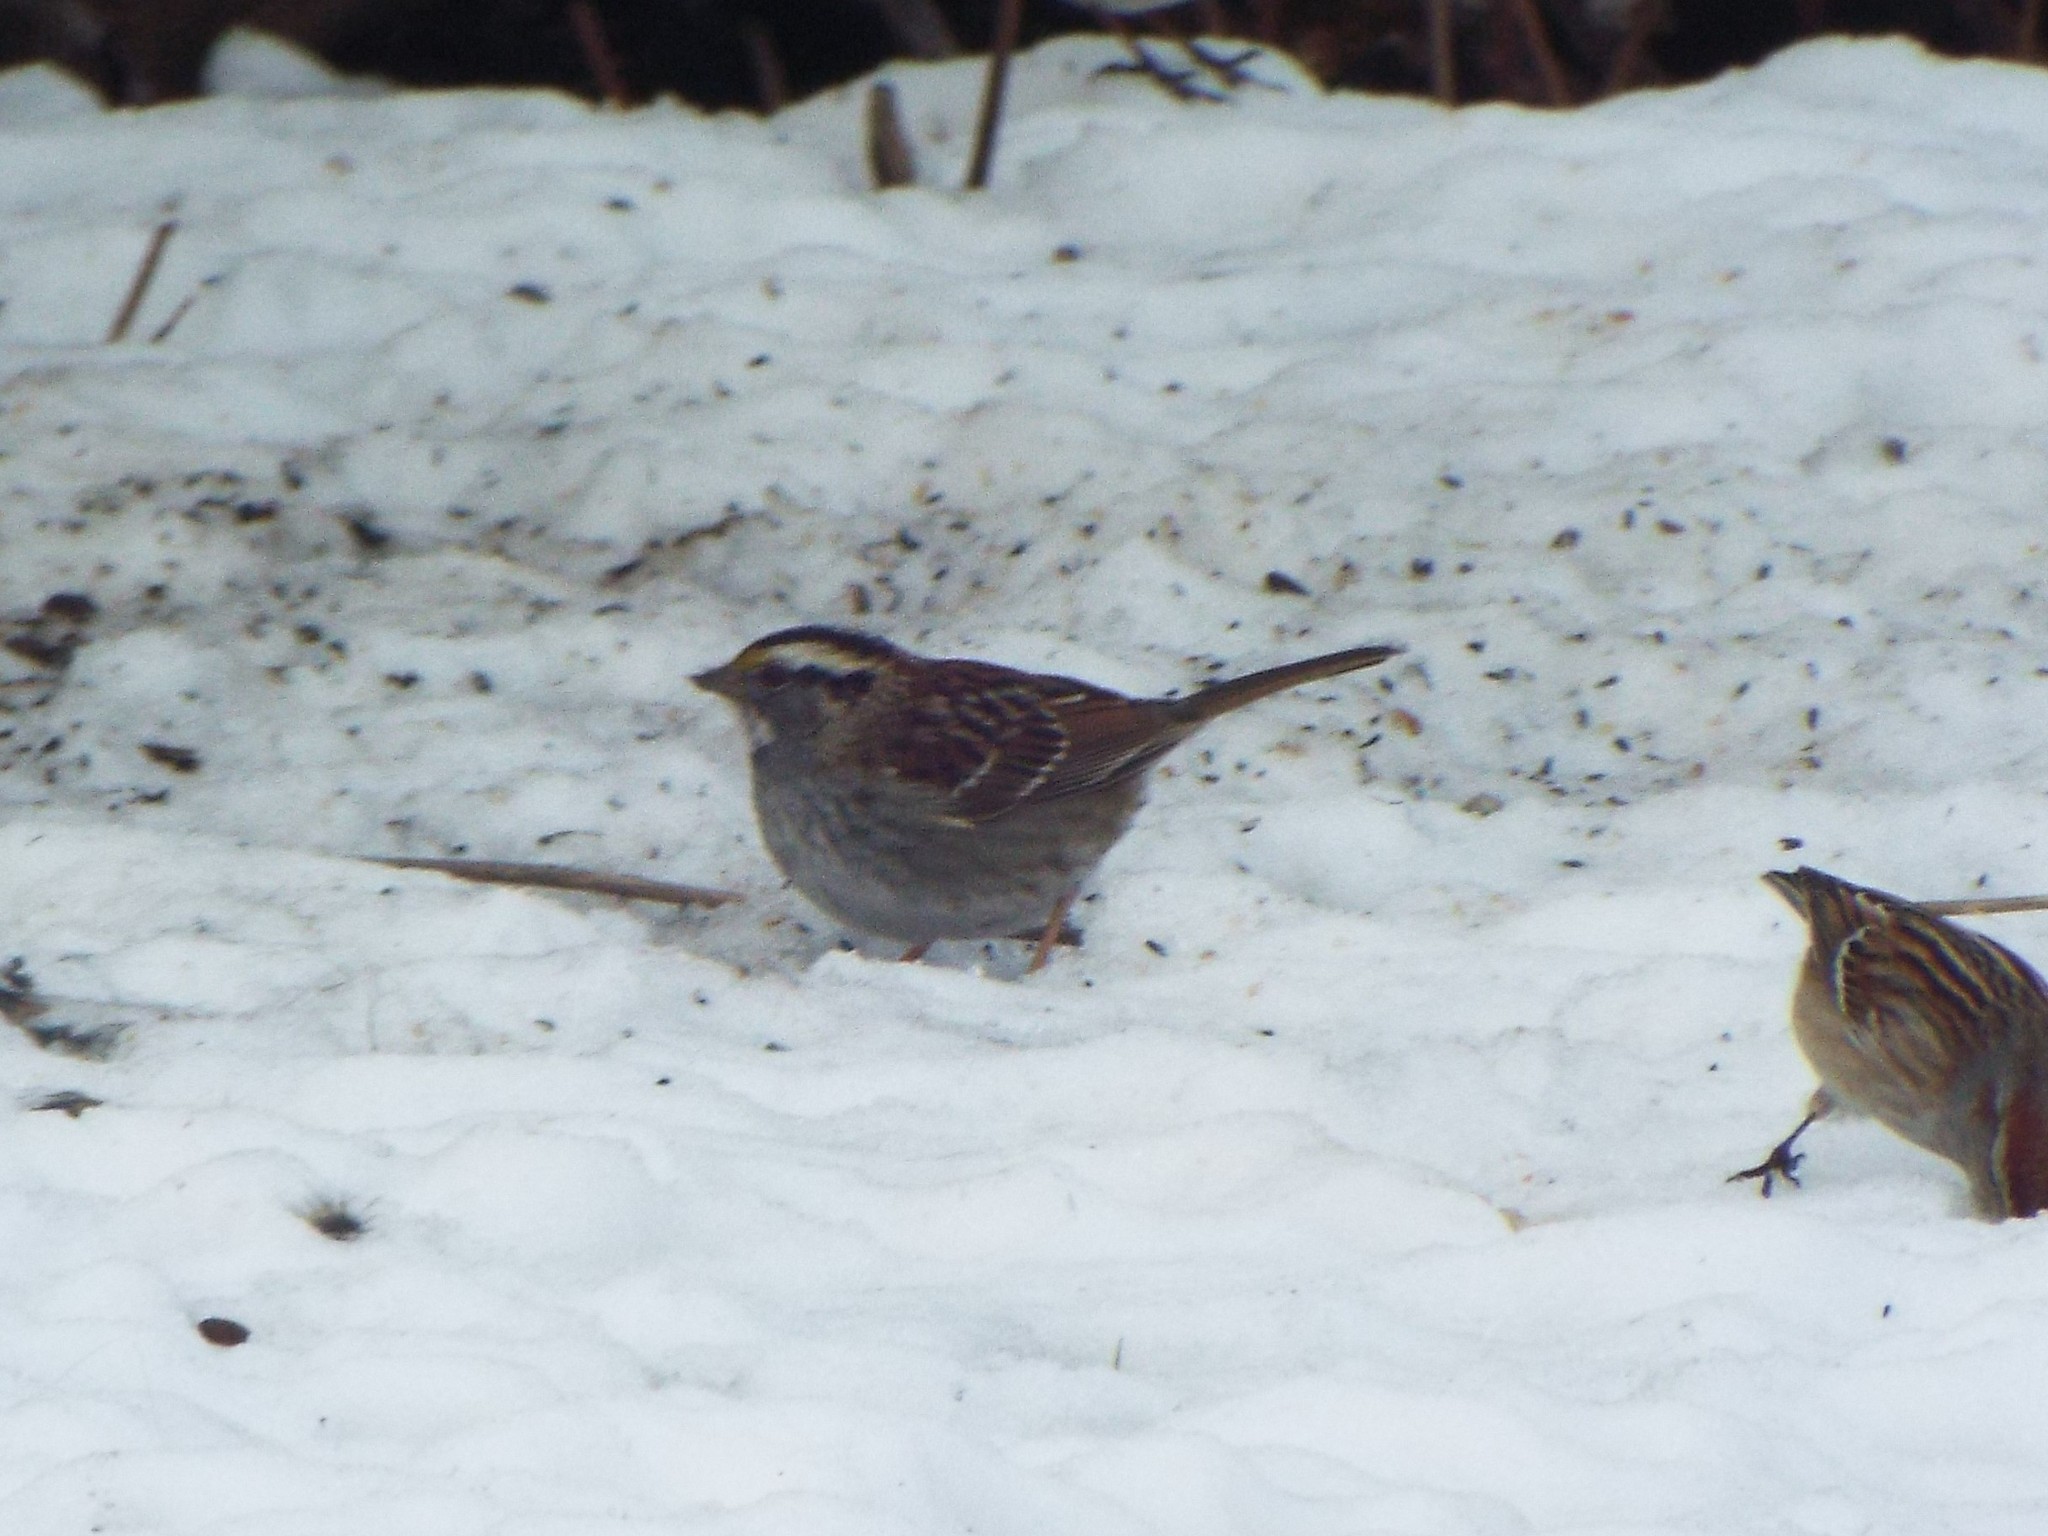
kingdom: Animalia
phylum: Chordata
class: Aves
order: Passeriformes
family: Passerellidae
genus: Zonotrichia
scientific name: Zonotrichia albicollis
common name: White-throated sparrow
